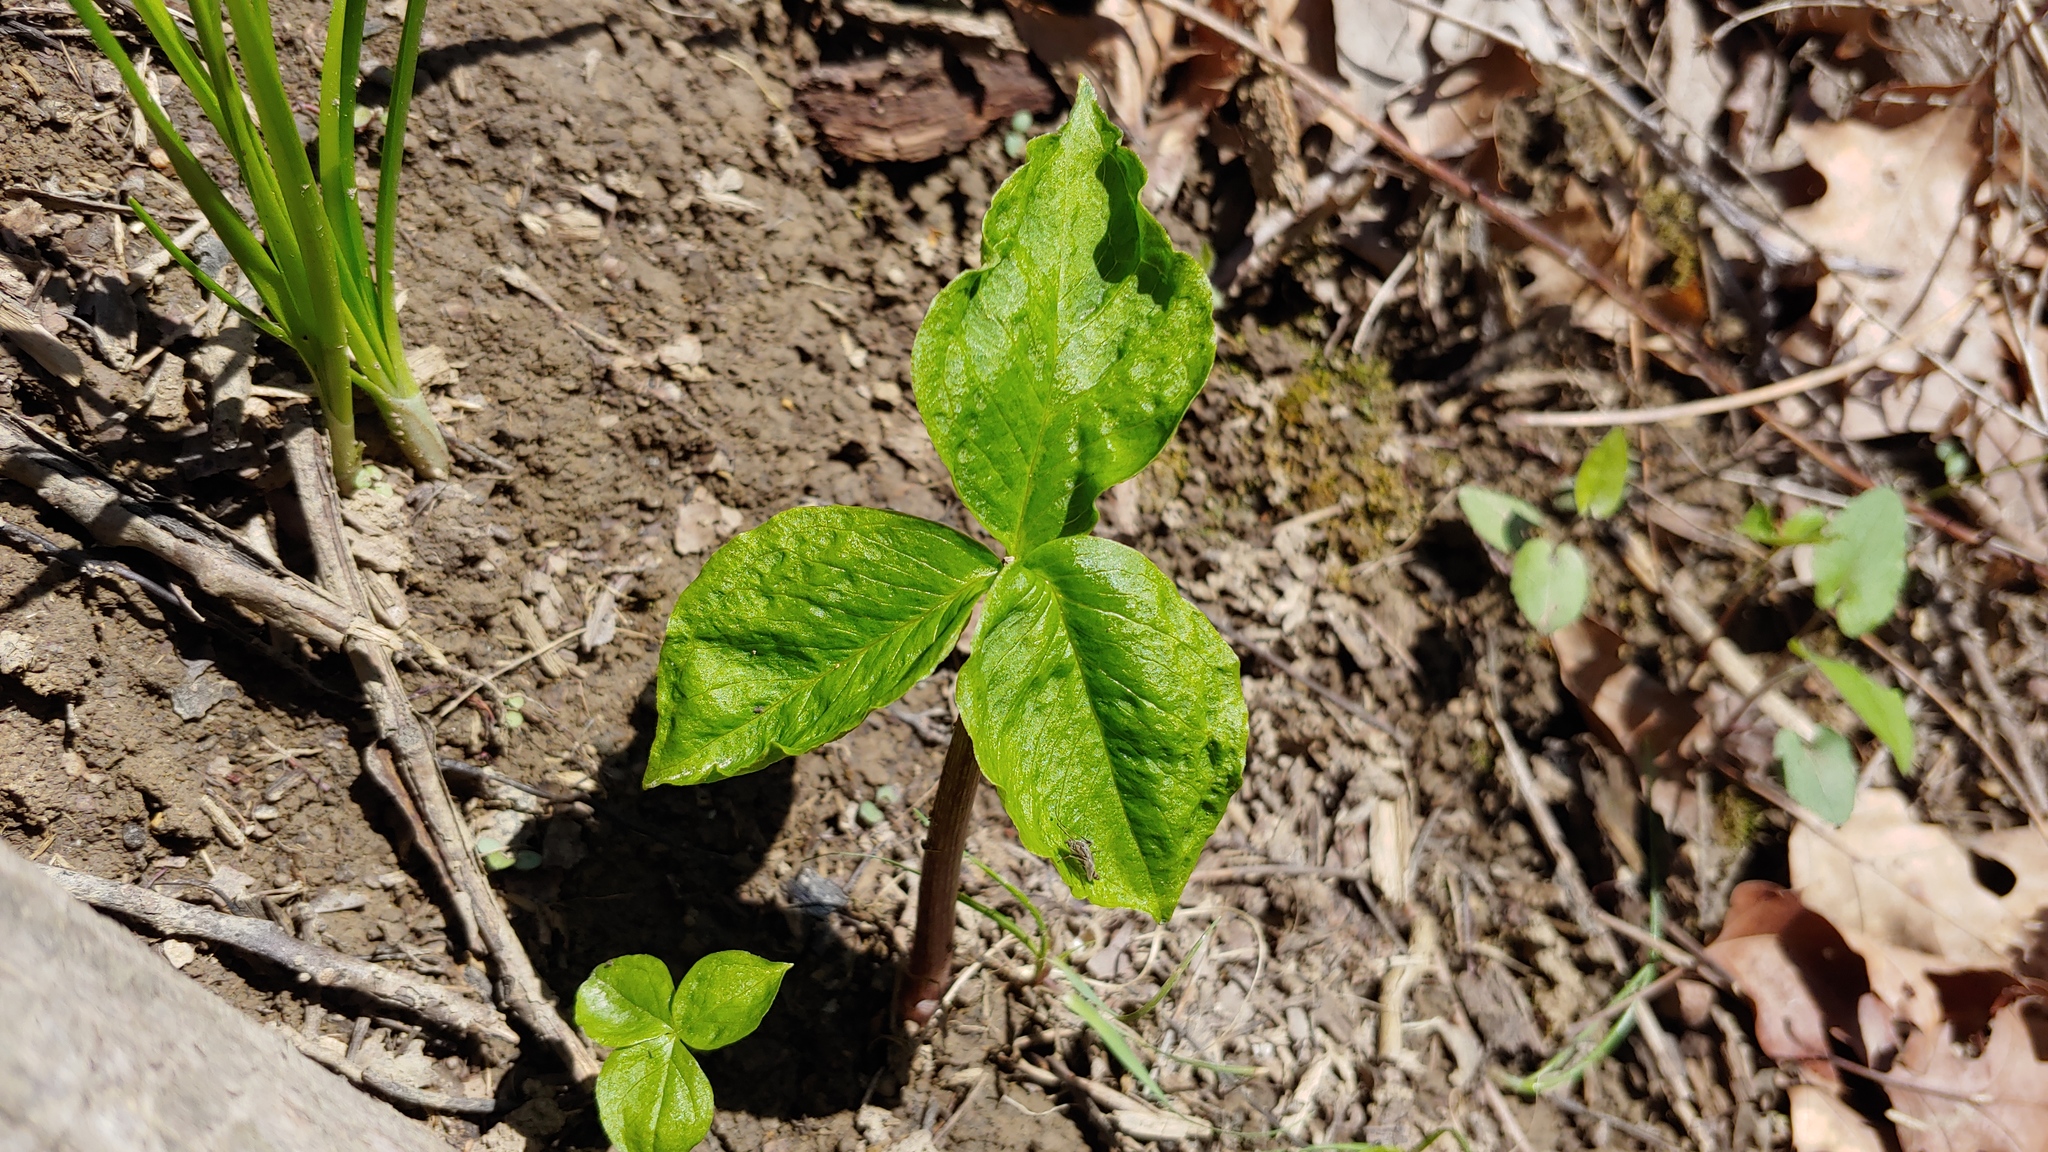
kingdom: Plantae
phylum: Tracheophyta
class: Liliopsida
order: Alismatales
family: Araceae
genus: Arisaema
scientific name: Arisaema triphyllum
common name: Jack-in-the-pulpit
